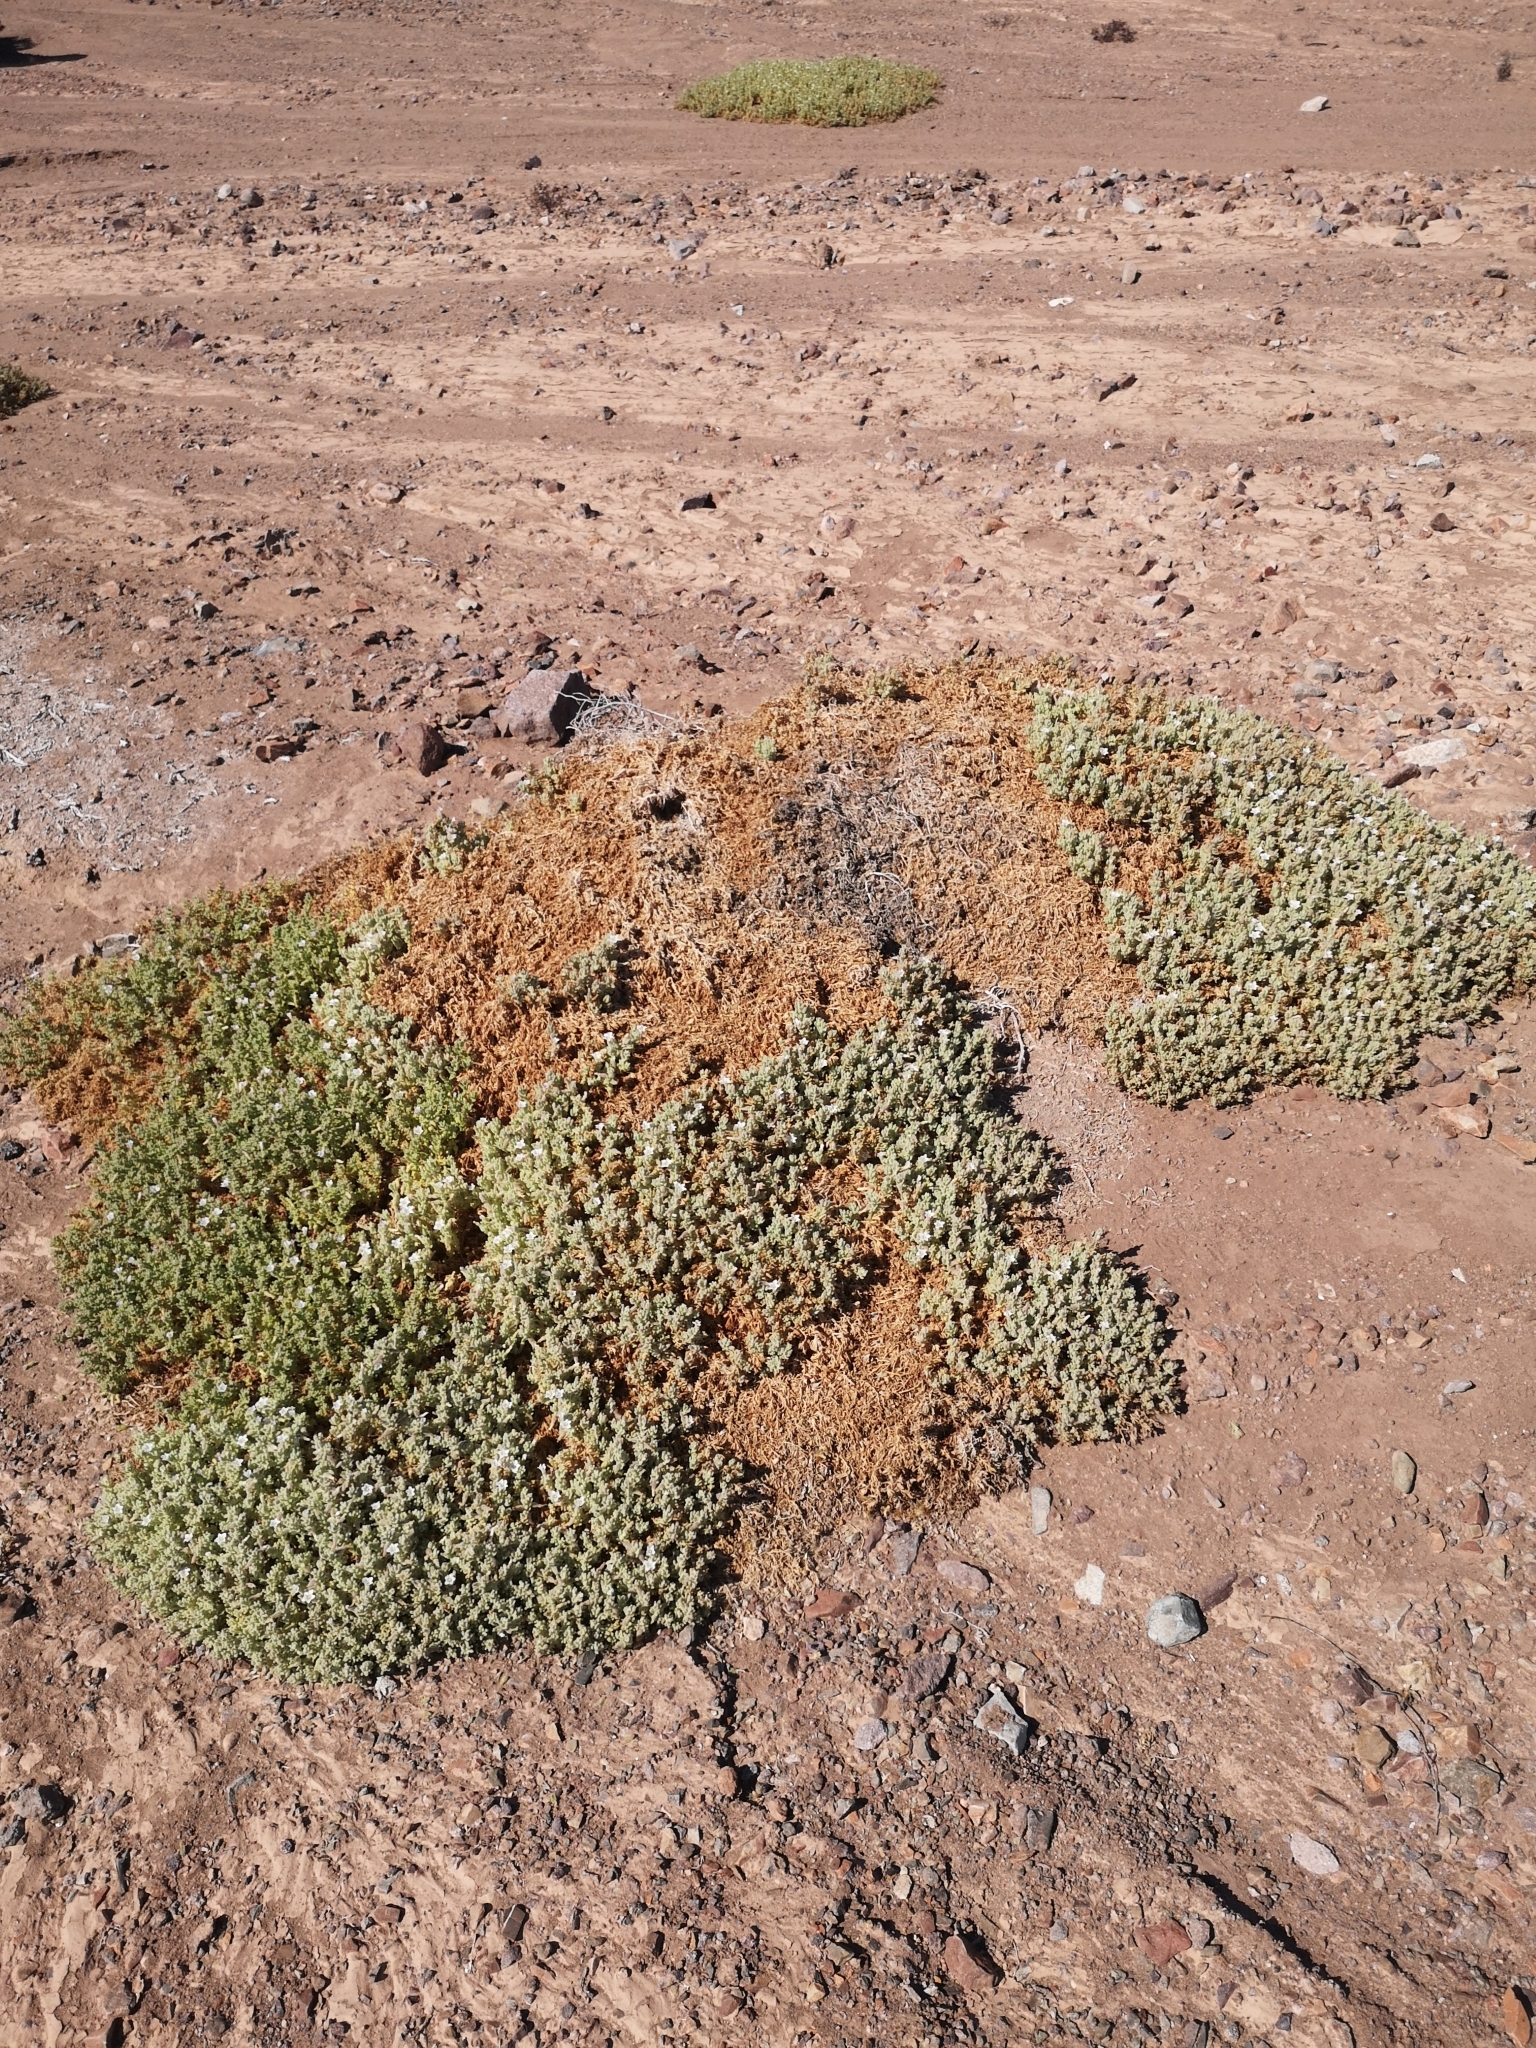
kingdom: Plantae
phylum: Tracheophyta
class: Magnoliopsida
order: Solanales
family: Solanaceae
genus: Nolana
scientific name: Nolana villosa
